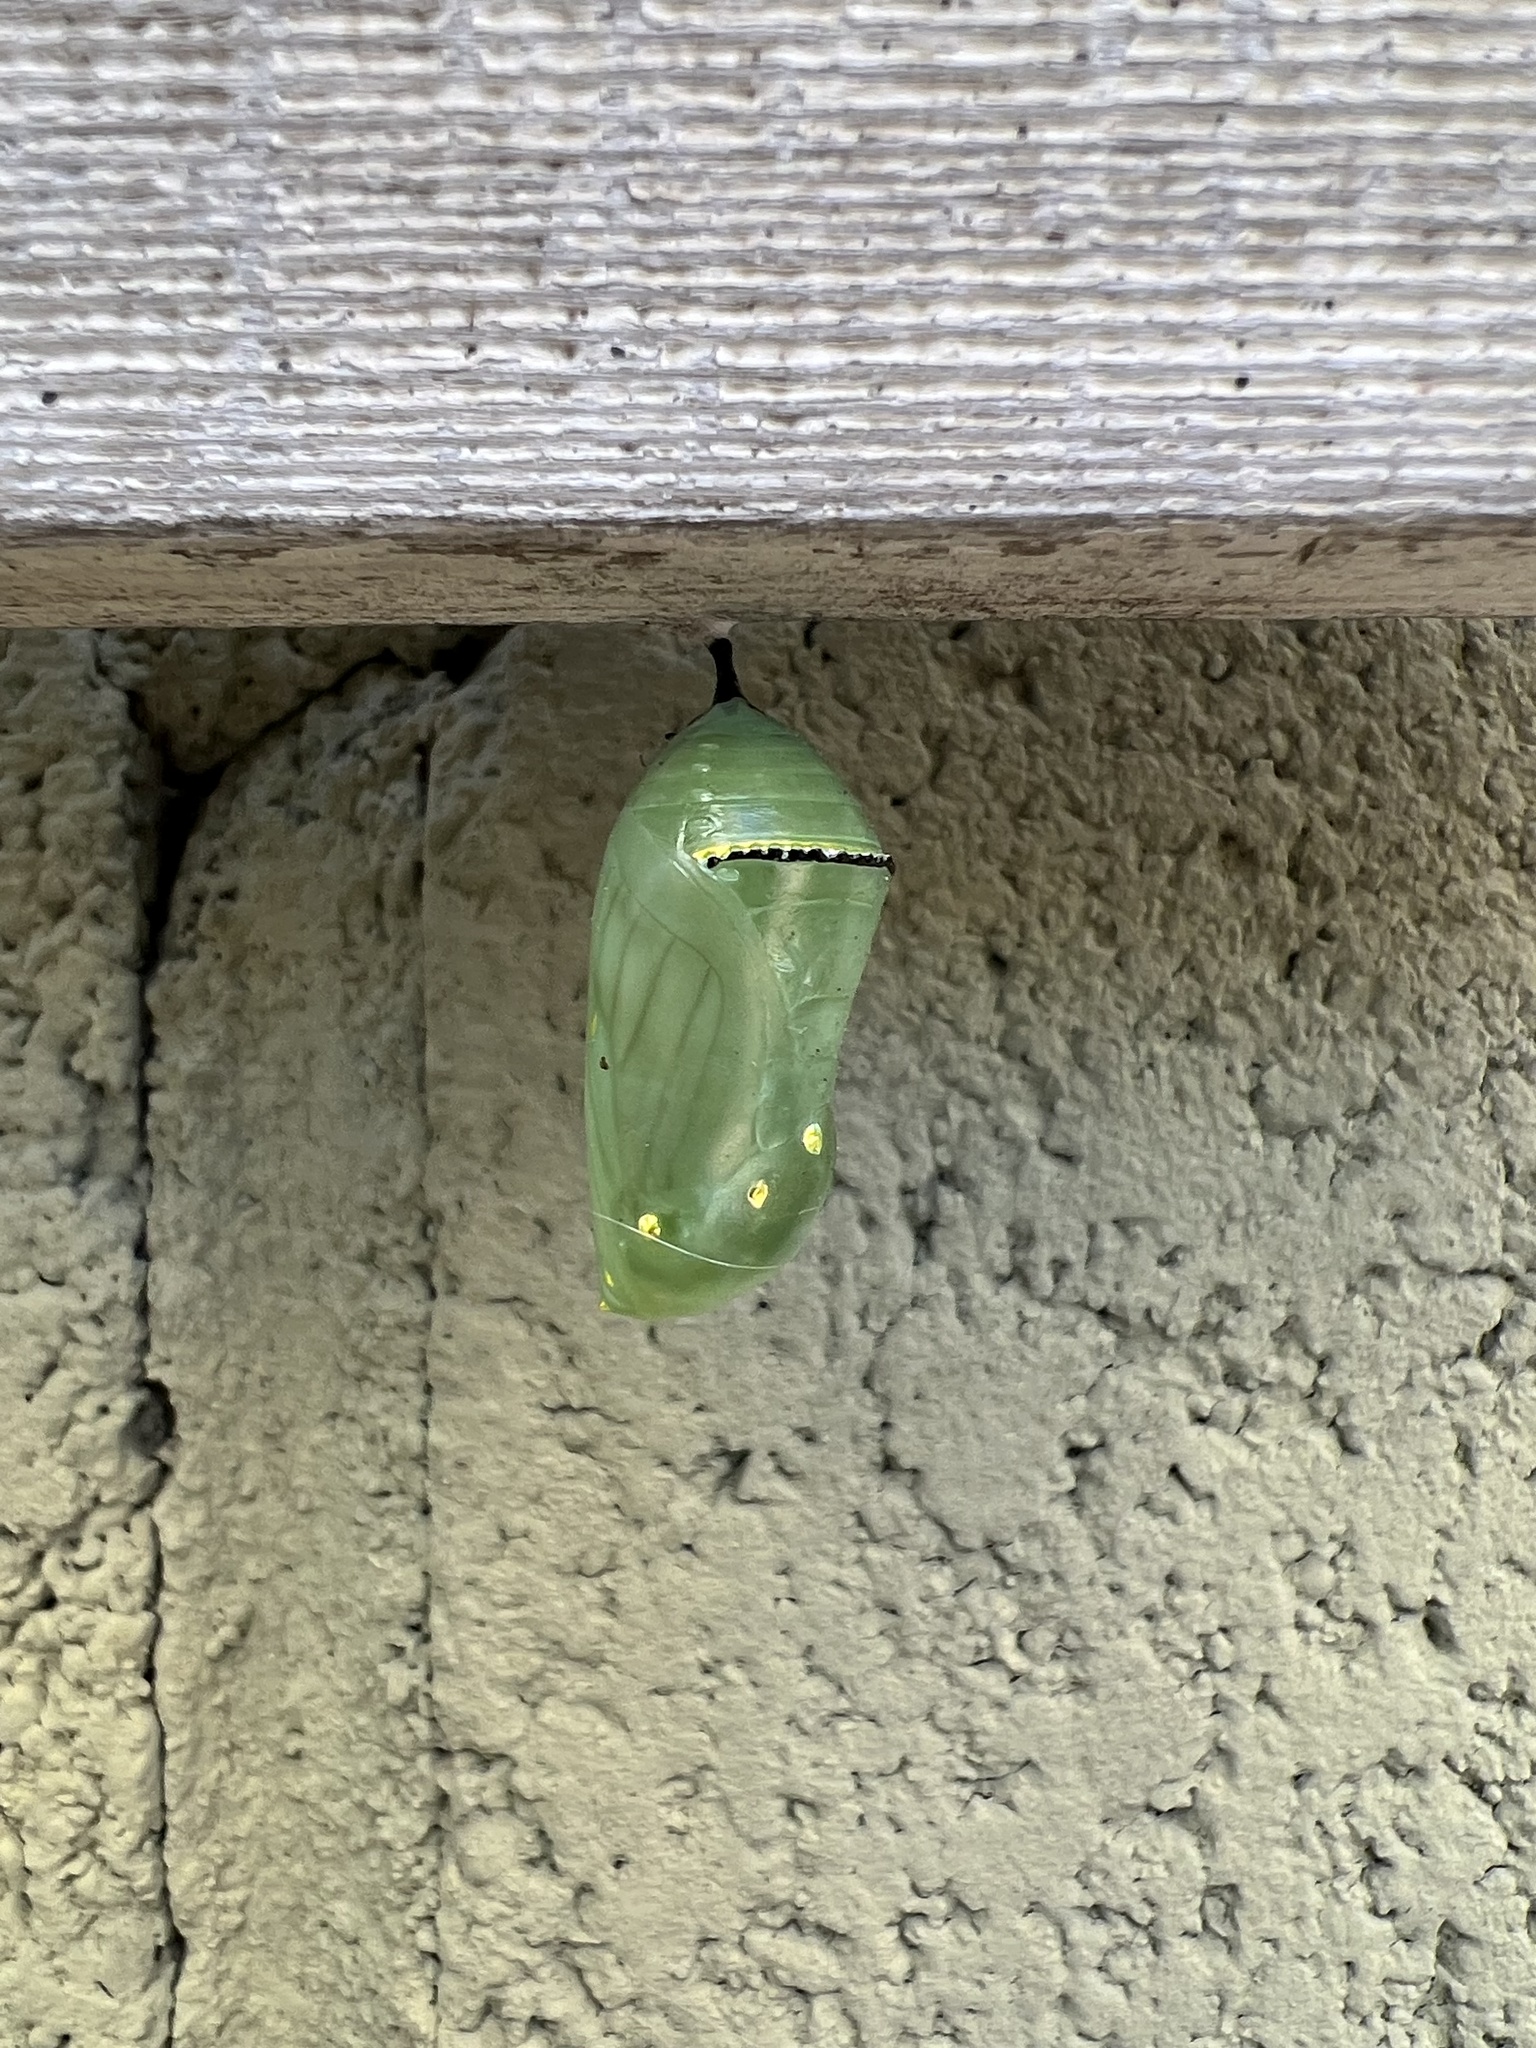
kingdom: Animalia
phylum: Arthropoda
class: Insecta
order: Lepidoptera
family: Nymphalidae
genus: Danaus
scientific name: Danaus plexippus
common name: Monarch
